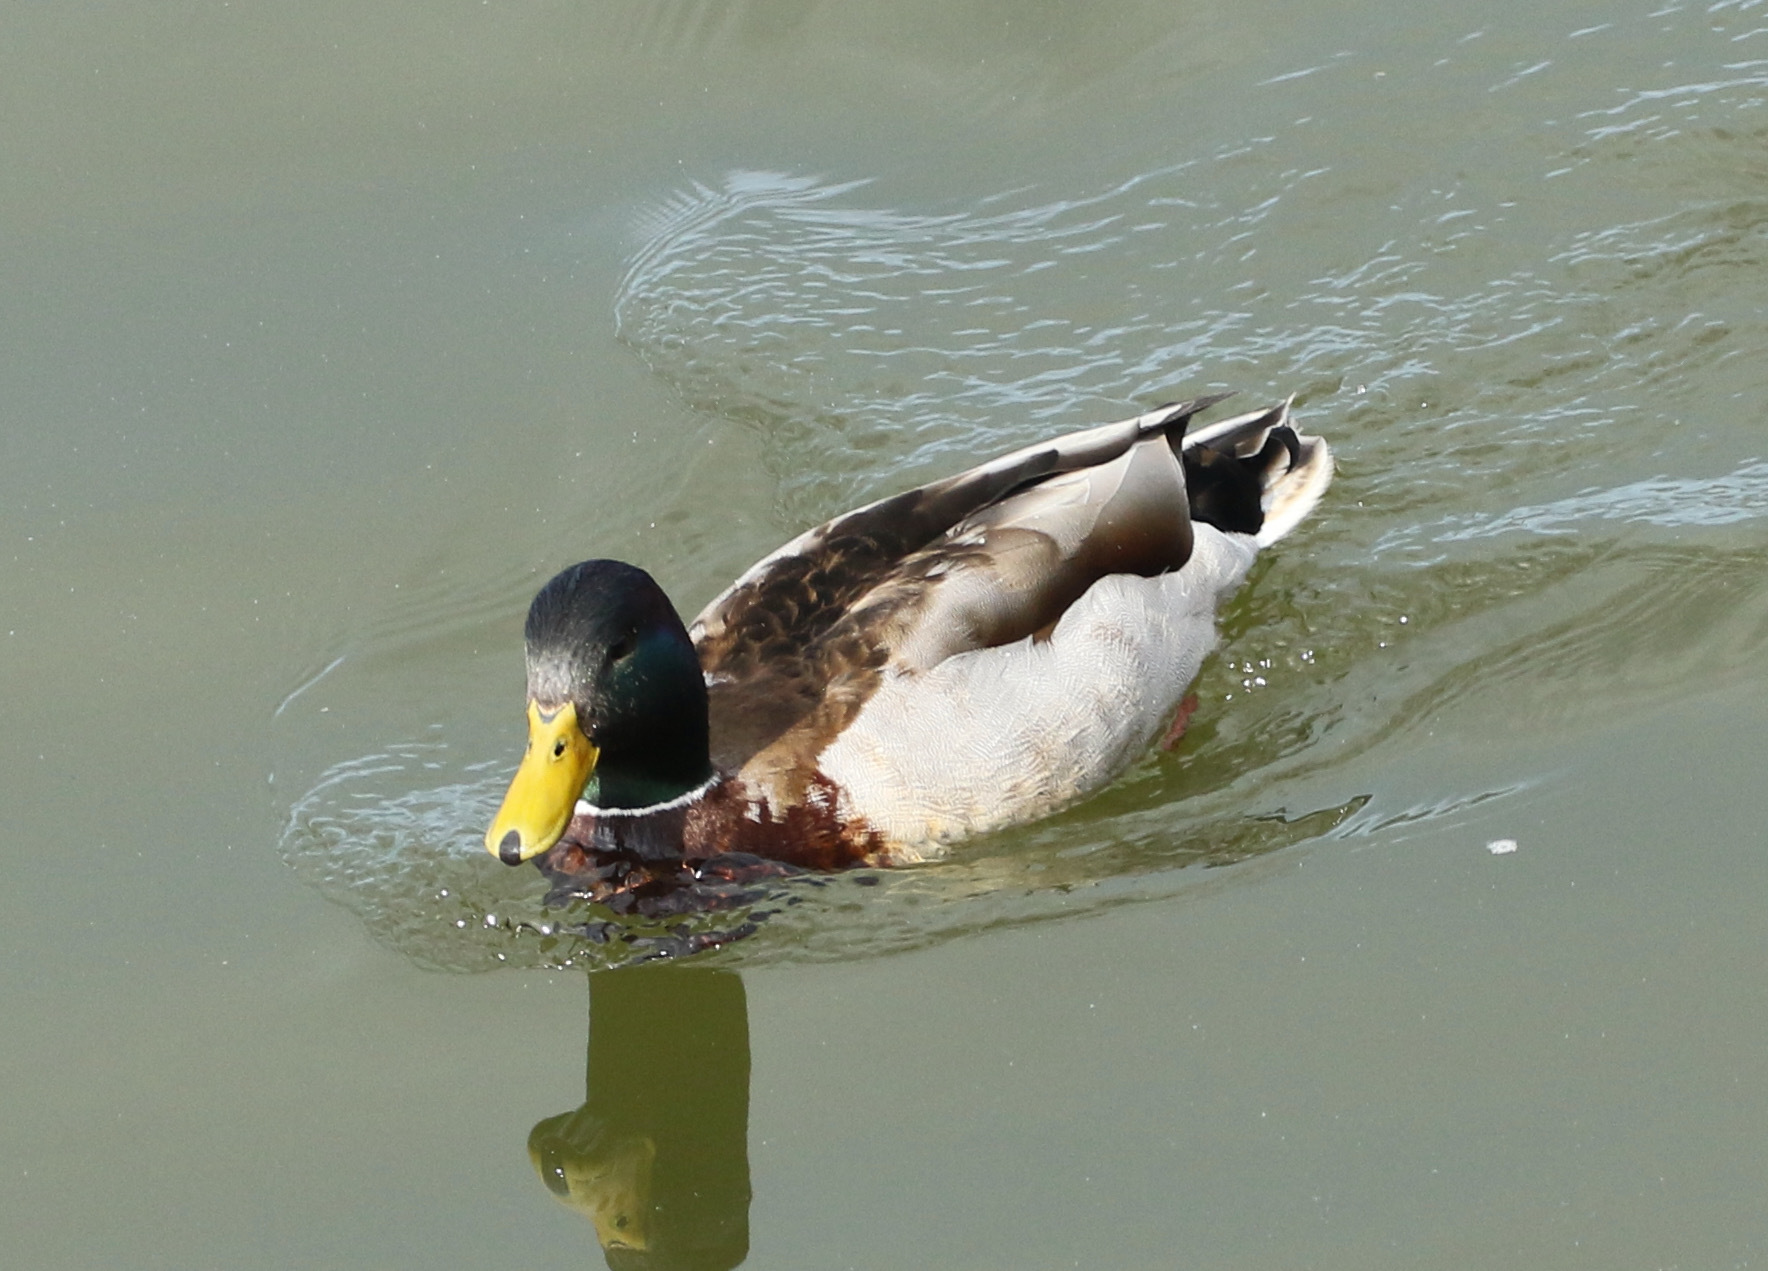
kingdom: Animalia
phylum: Chordata
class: Aves
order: Anseriformes
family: Anatidae
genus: Anas
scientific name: Anas platyrhynchos
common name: Mallard
